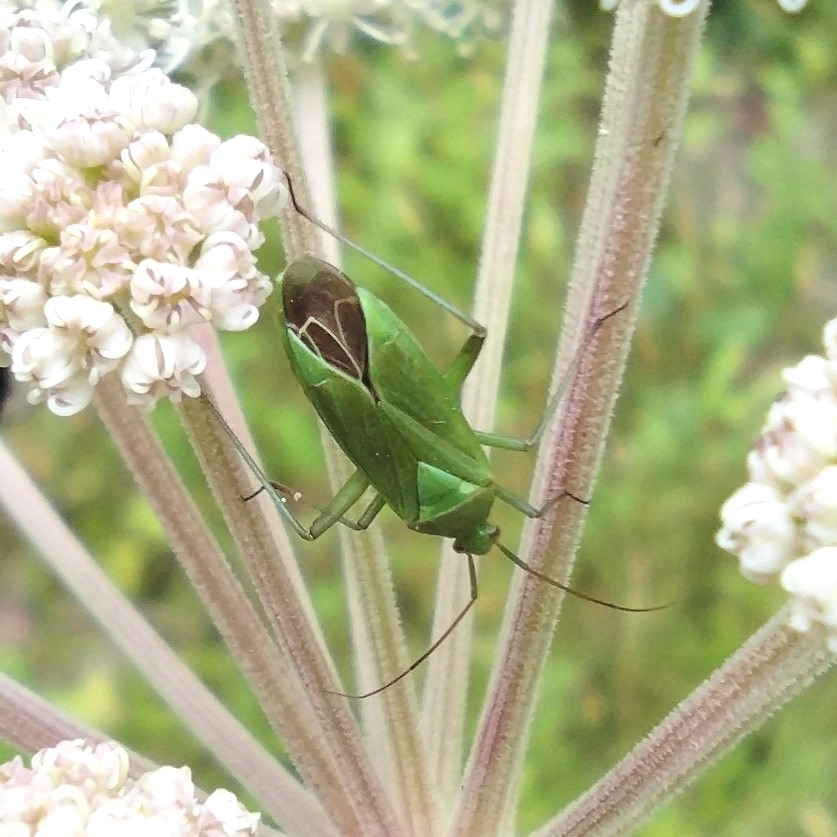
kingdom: Animalia
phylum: Arthropoda
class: Insecta
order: Hemiptera
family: Miridae
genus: Calocoris
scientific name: Calocoris affinis
